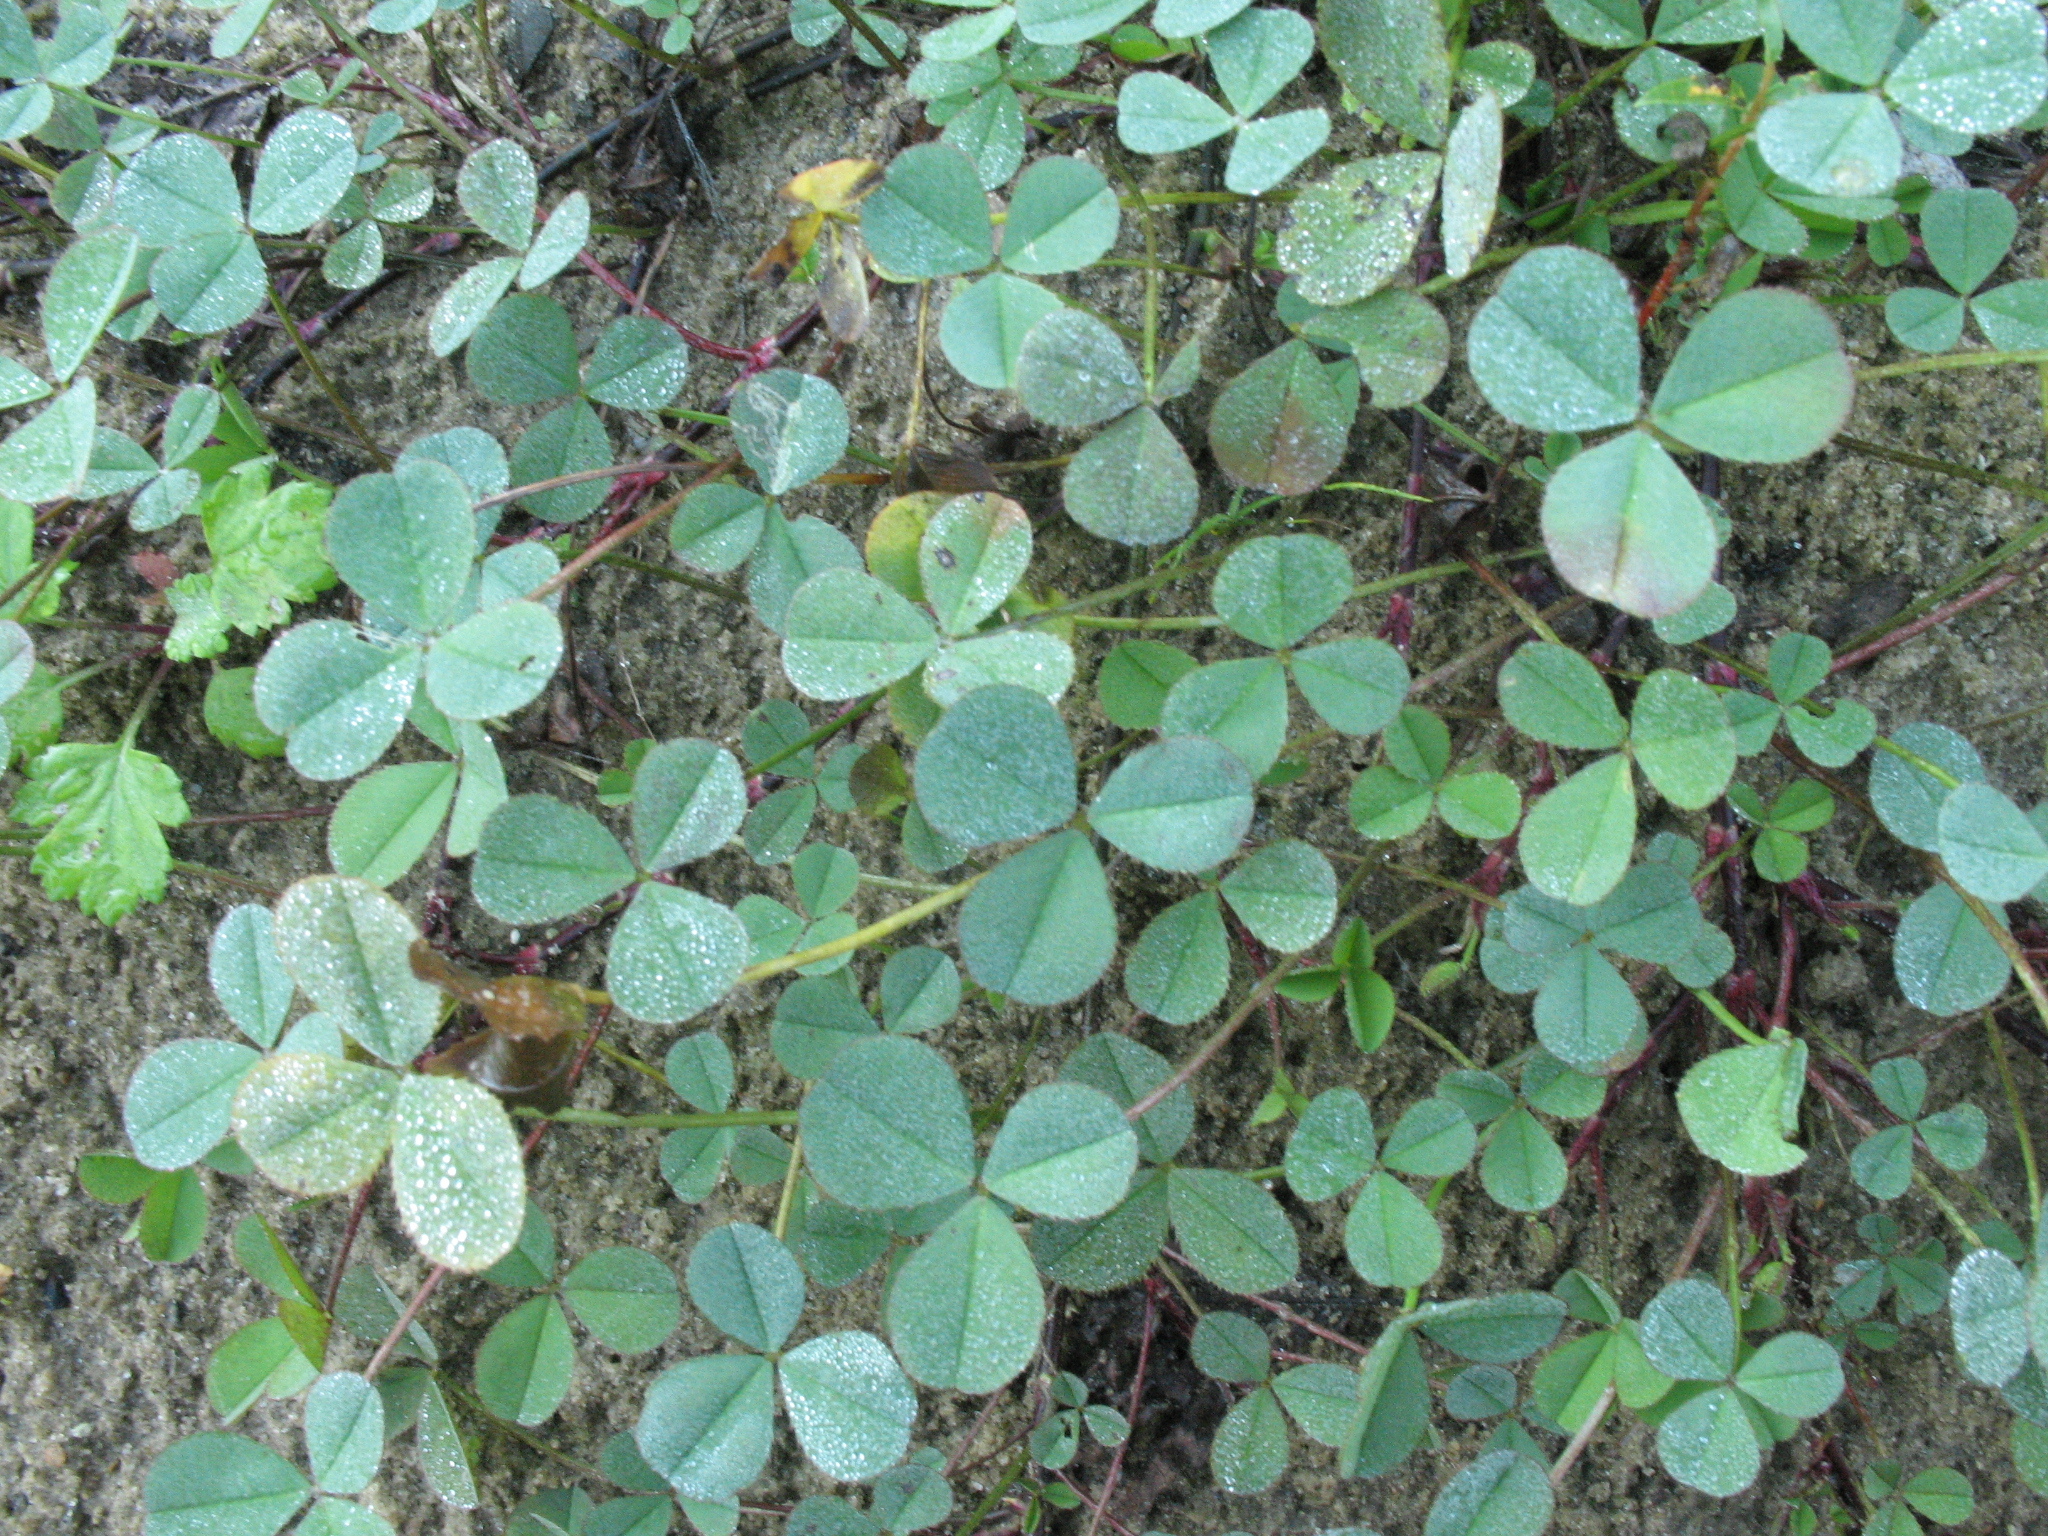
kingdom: Plantae
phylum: Tracheophyta
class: Magnoliopsida
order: Fabales
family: Fabaceae
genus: Trifolium
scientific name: Trifolium repens
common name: White clover
